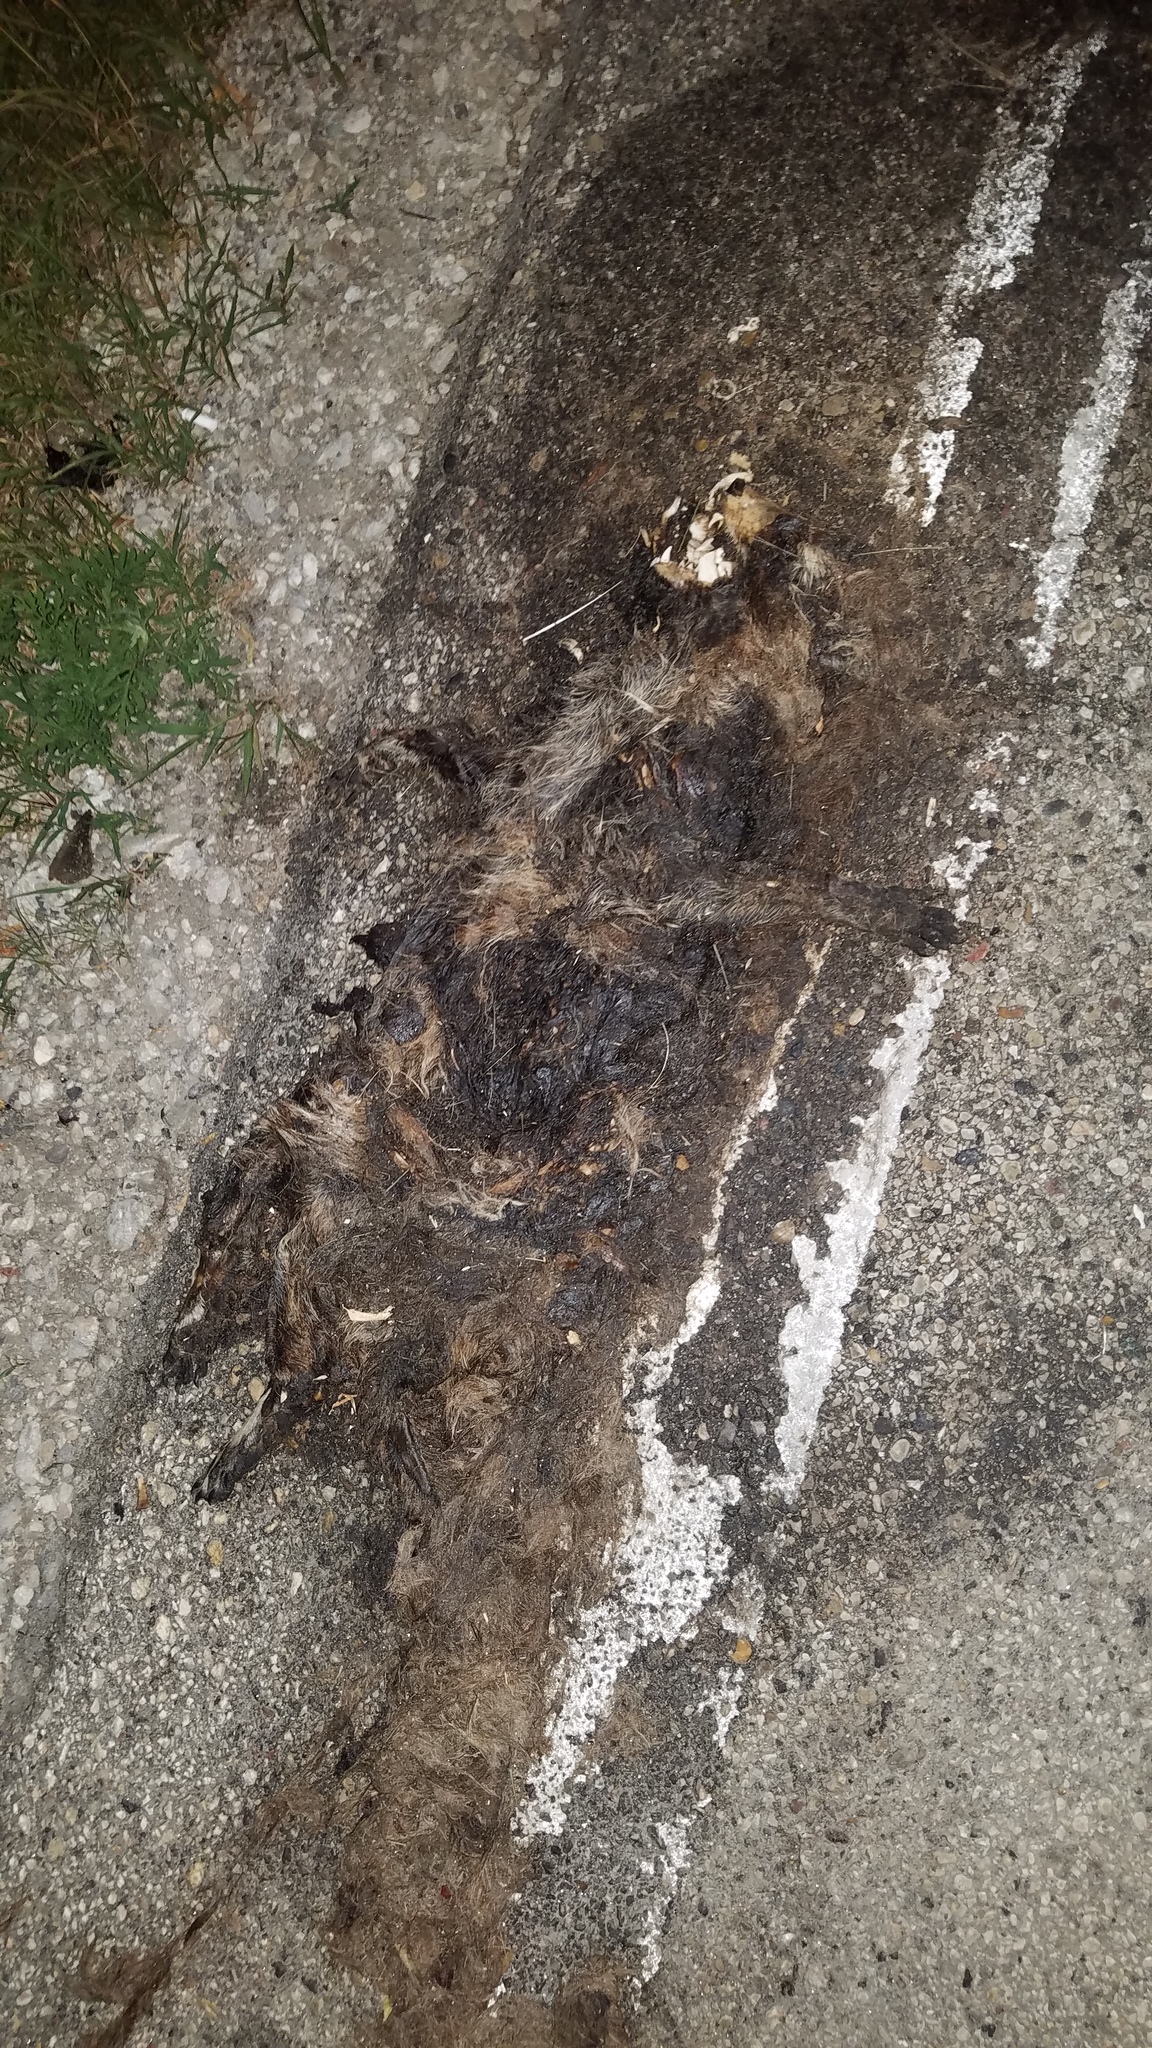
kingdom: Animalia
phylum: Chordata
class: Mammalia
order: Carnivora
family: Procyonidae
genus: Procyon
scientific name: Procyon lotor
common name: Raccoon
